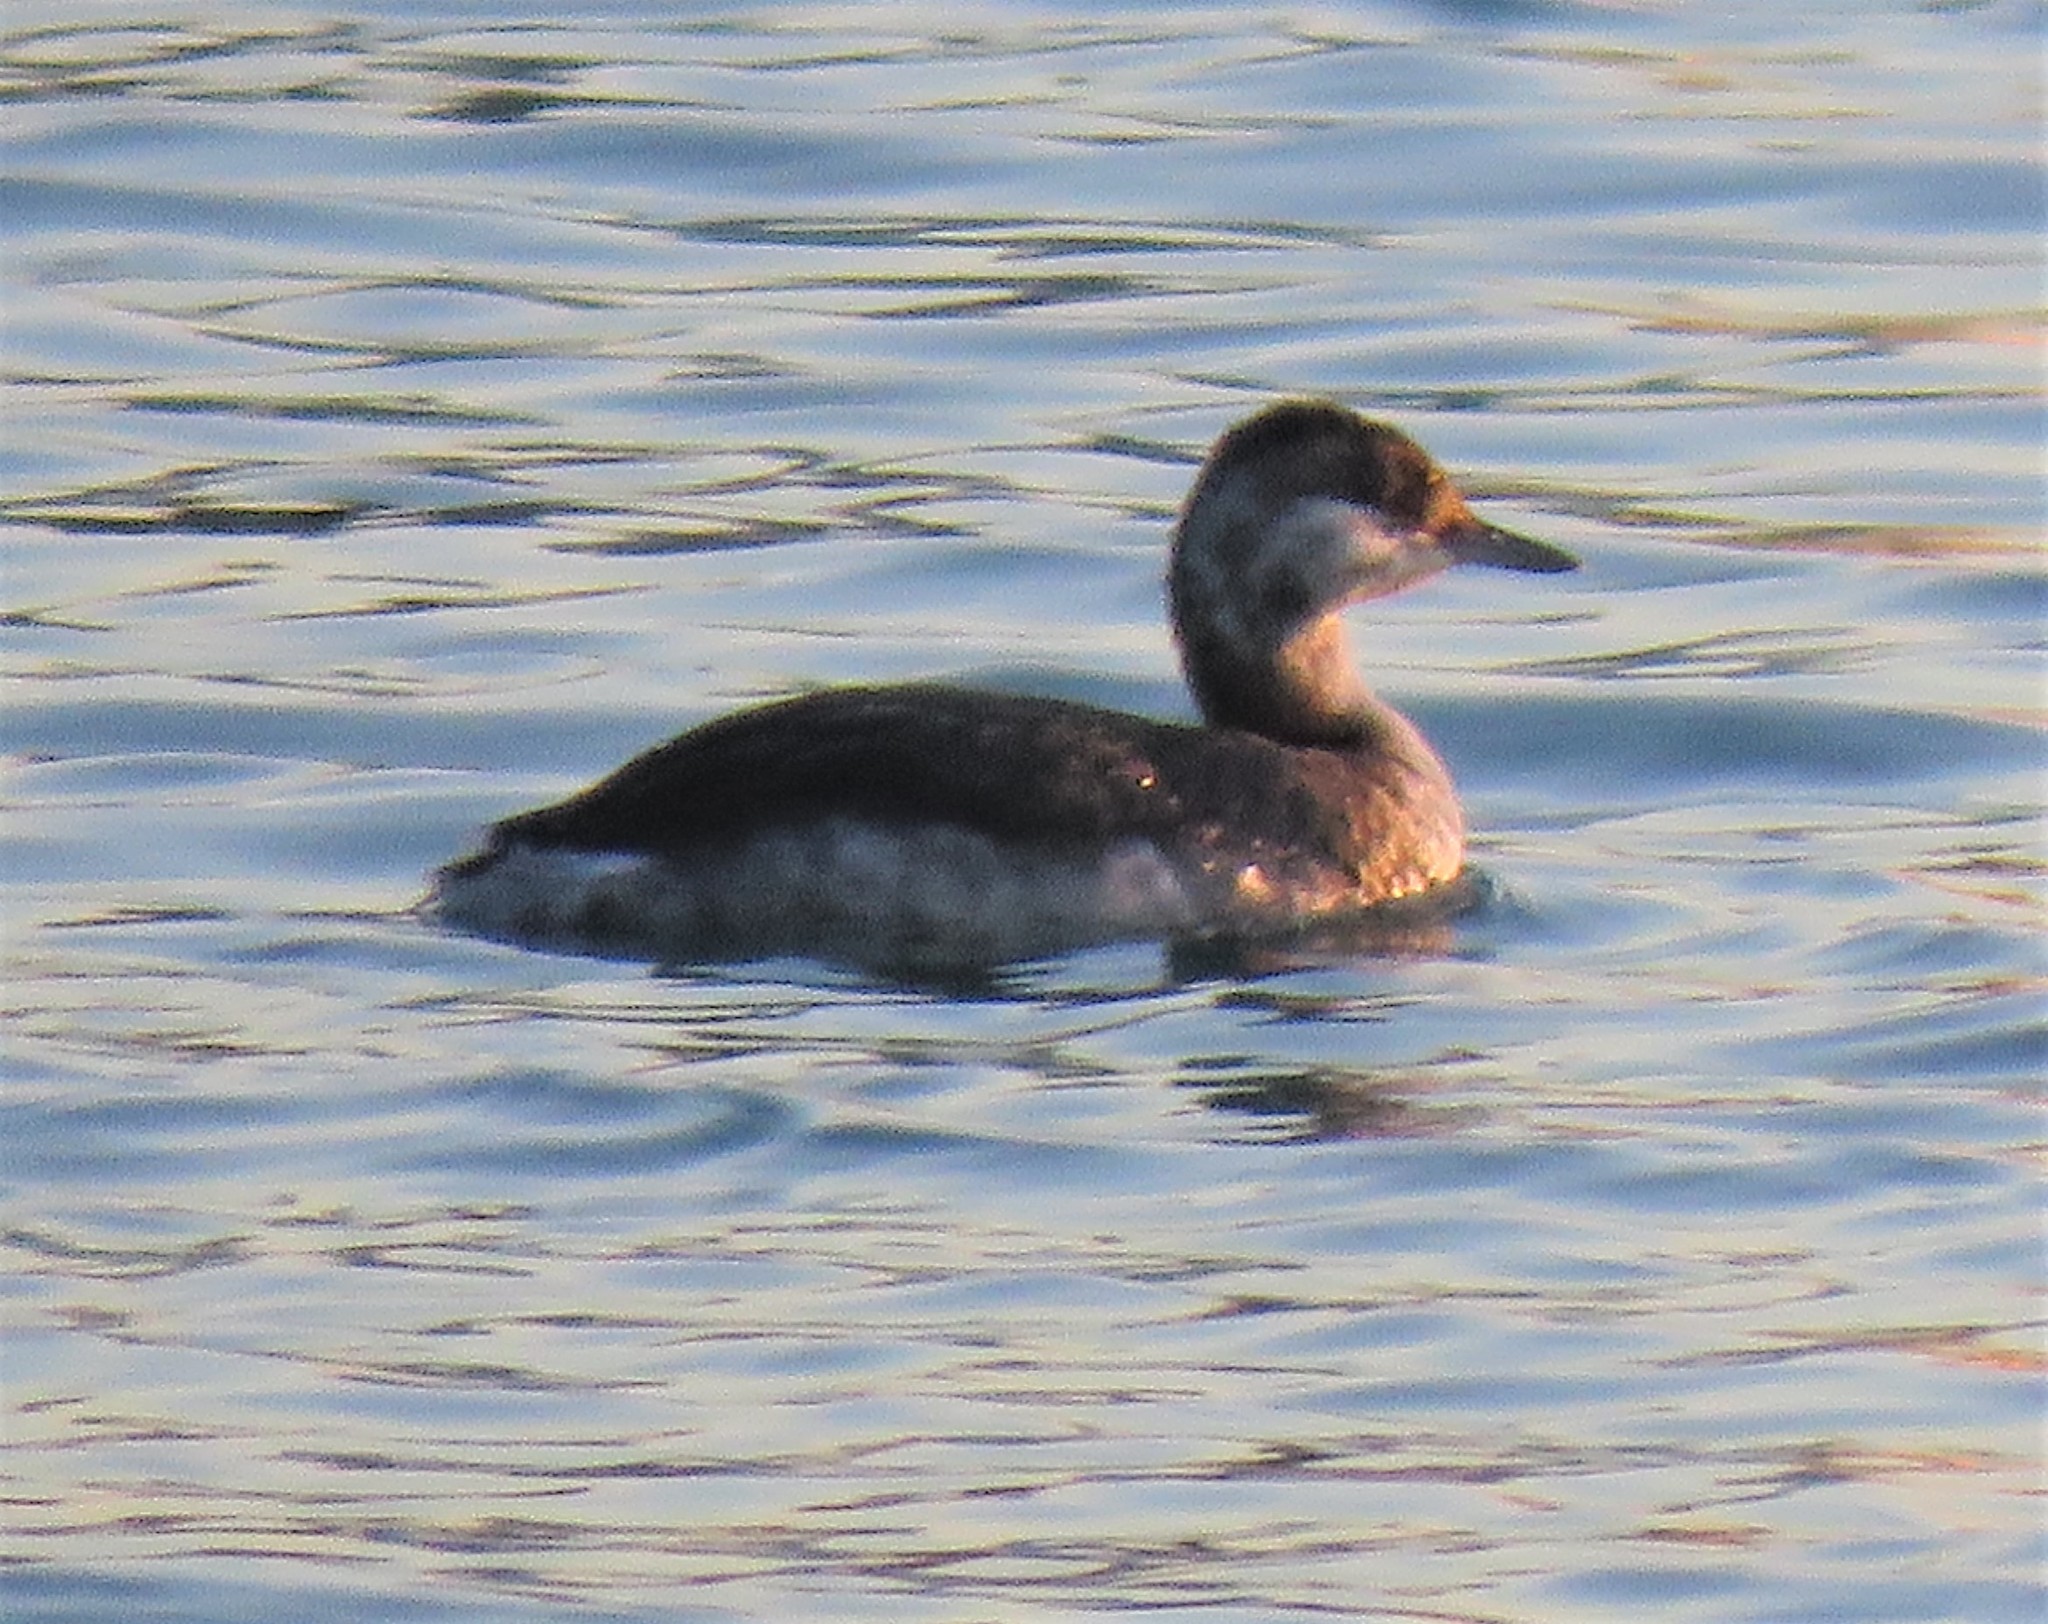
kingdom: Animalia
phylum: Chordata
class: Aves
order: Podicipediformes
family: Podicipedidae
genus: Podiceps
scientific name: Podiceps auritus
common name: Horned grebe
